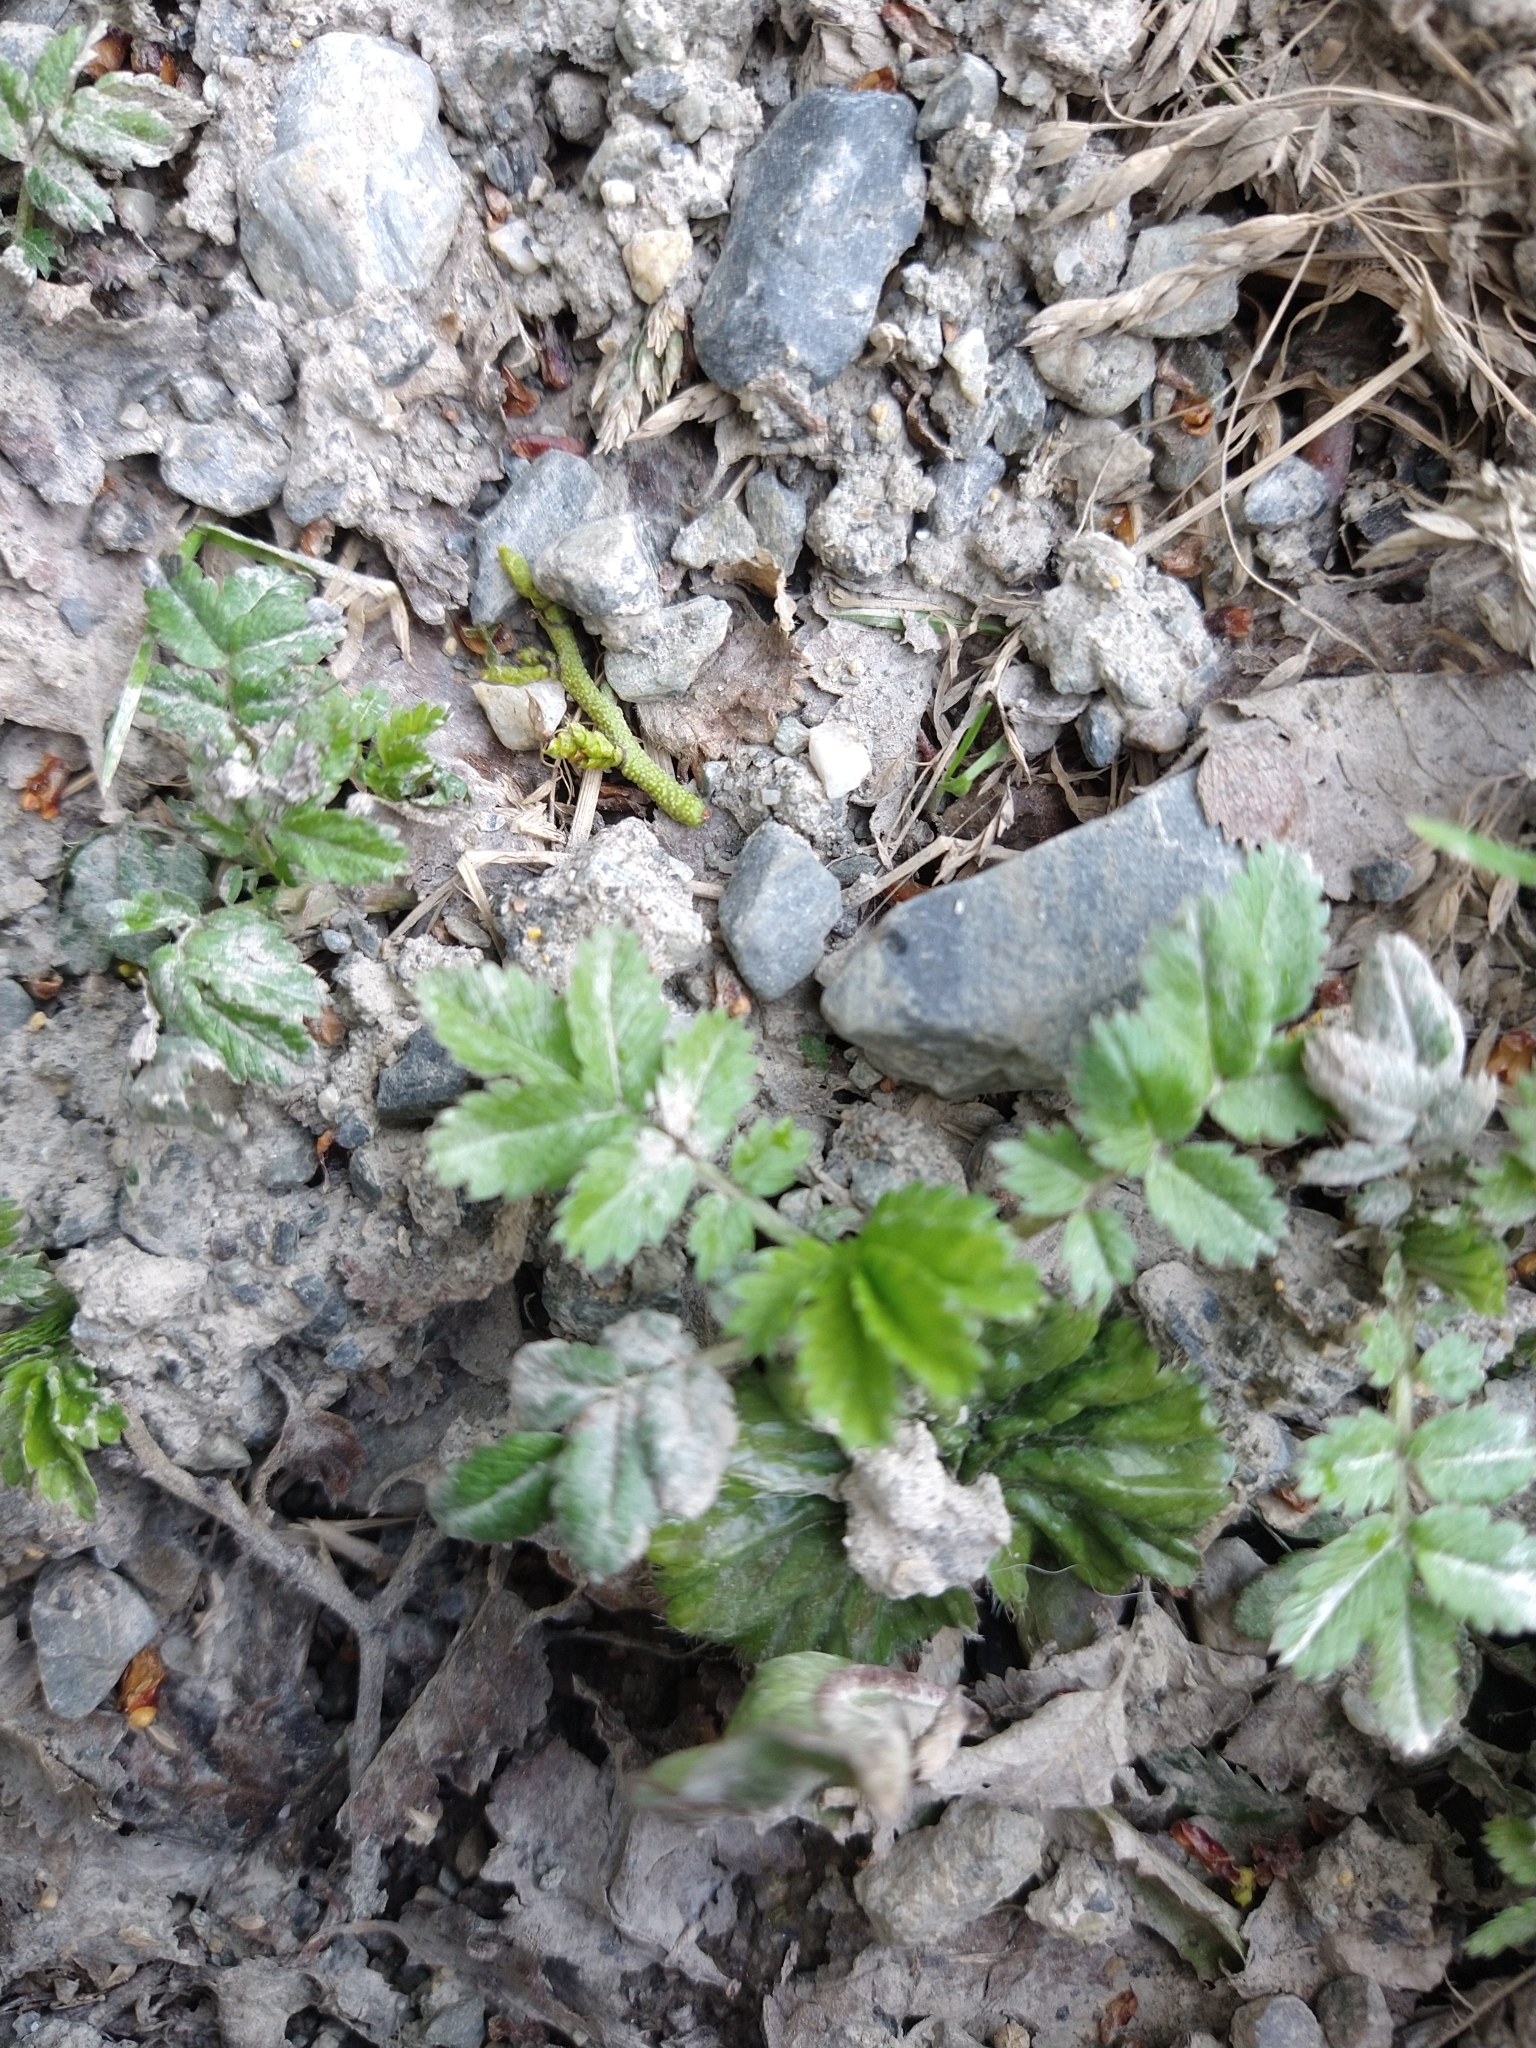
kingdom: Plantae
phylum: Tracheophyta
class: Magnoliopsida
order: Rosales
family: Rosaceae
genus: Acaena
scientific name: Acaena ovalifolia
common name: Two-spined acaena
